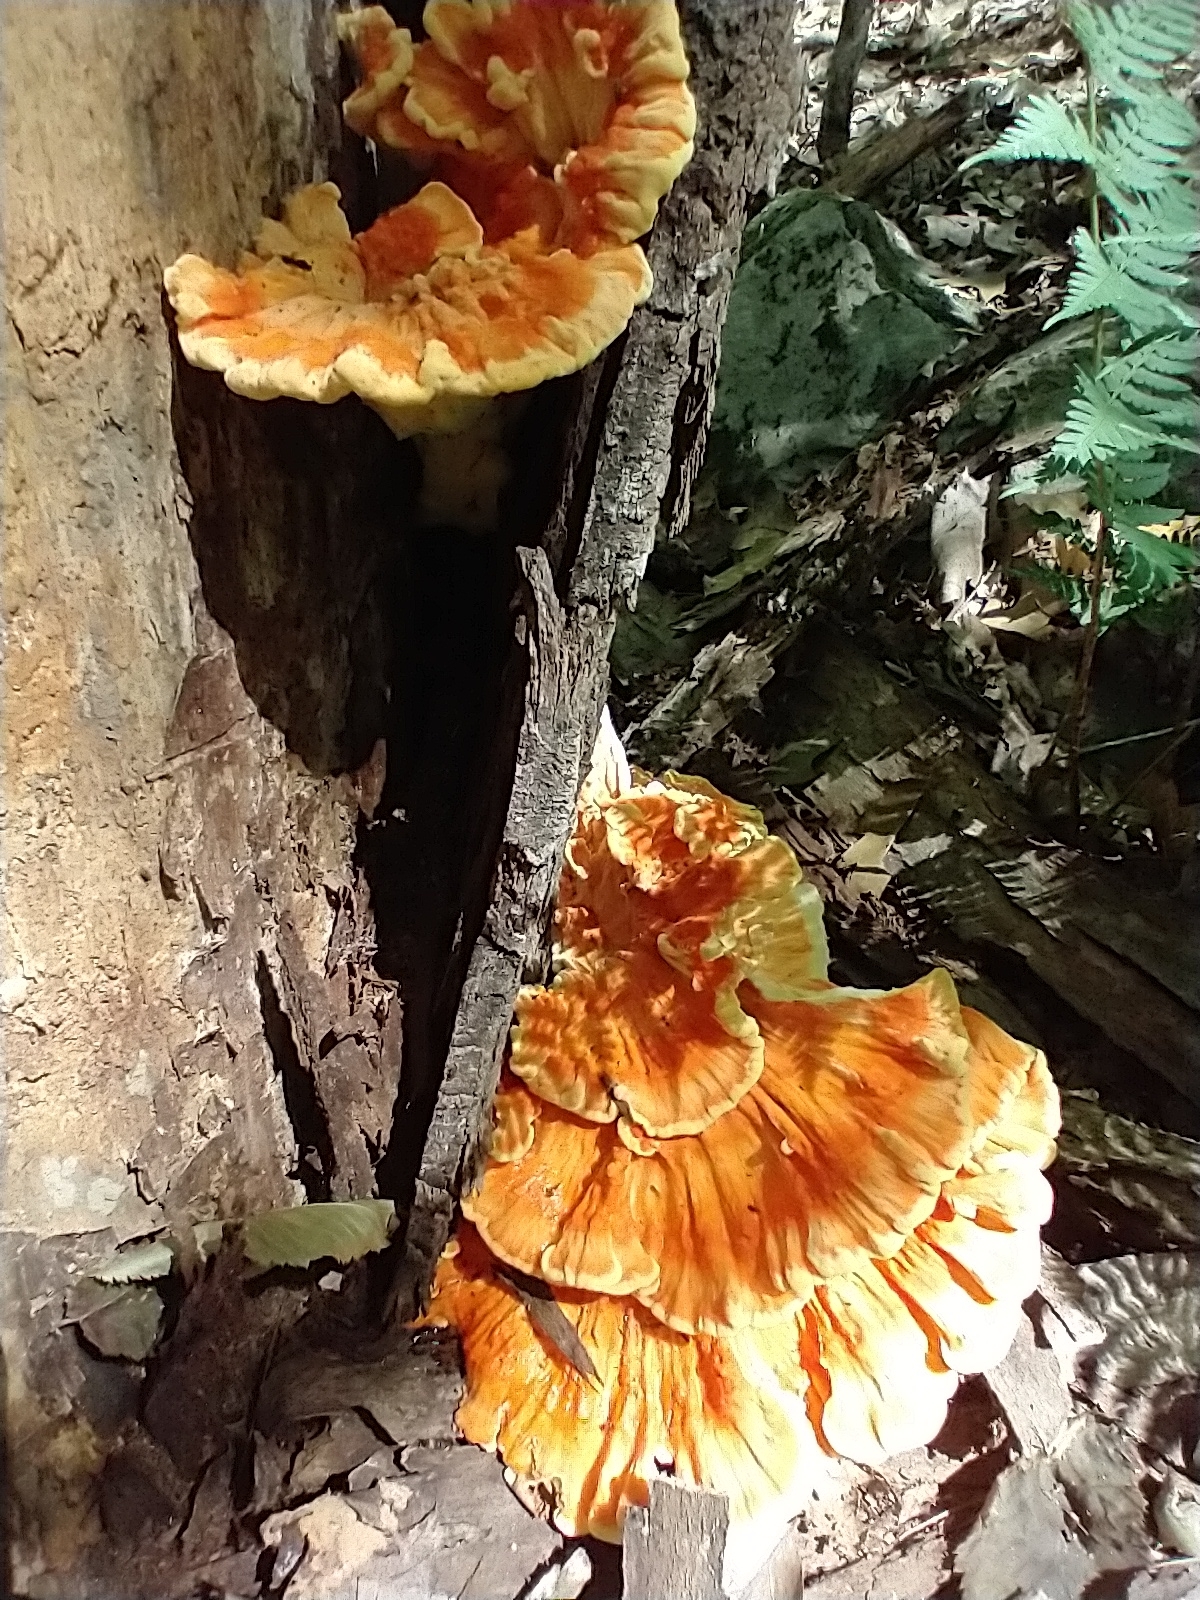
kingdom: Fungi
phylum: Basidiomycota
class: Agaricomycetes
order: Polyporales
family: Laetiporaceae
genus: Laetiporus
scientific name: Laetiporus sulphureus
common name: Chicken of the woods
